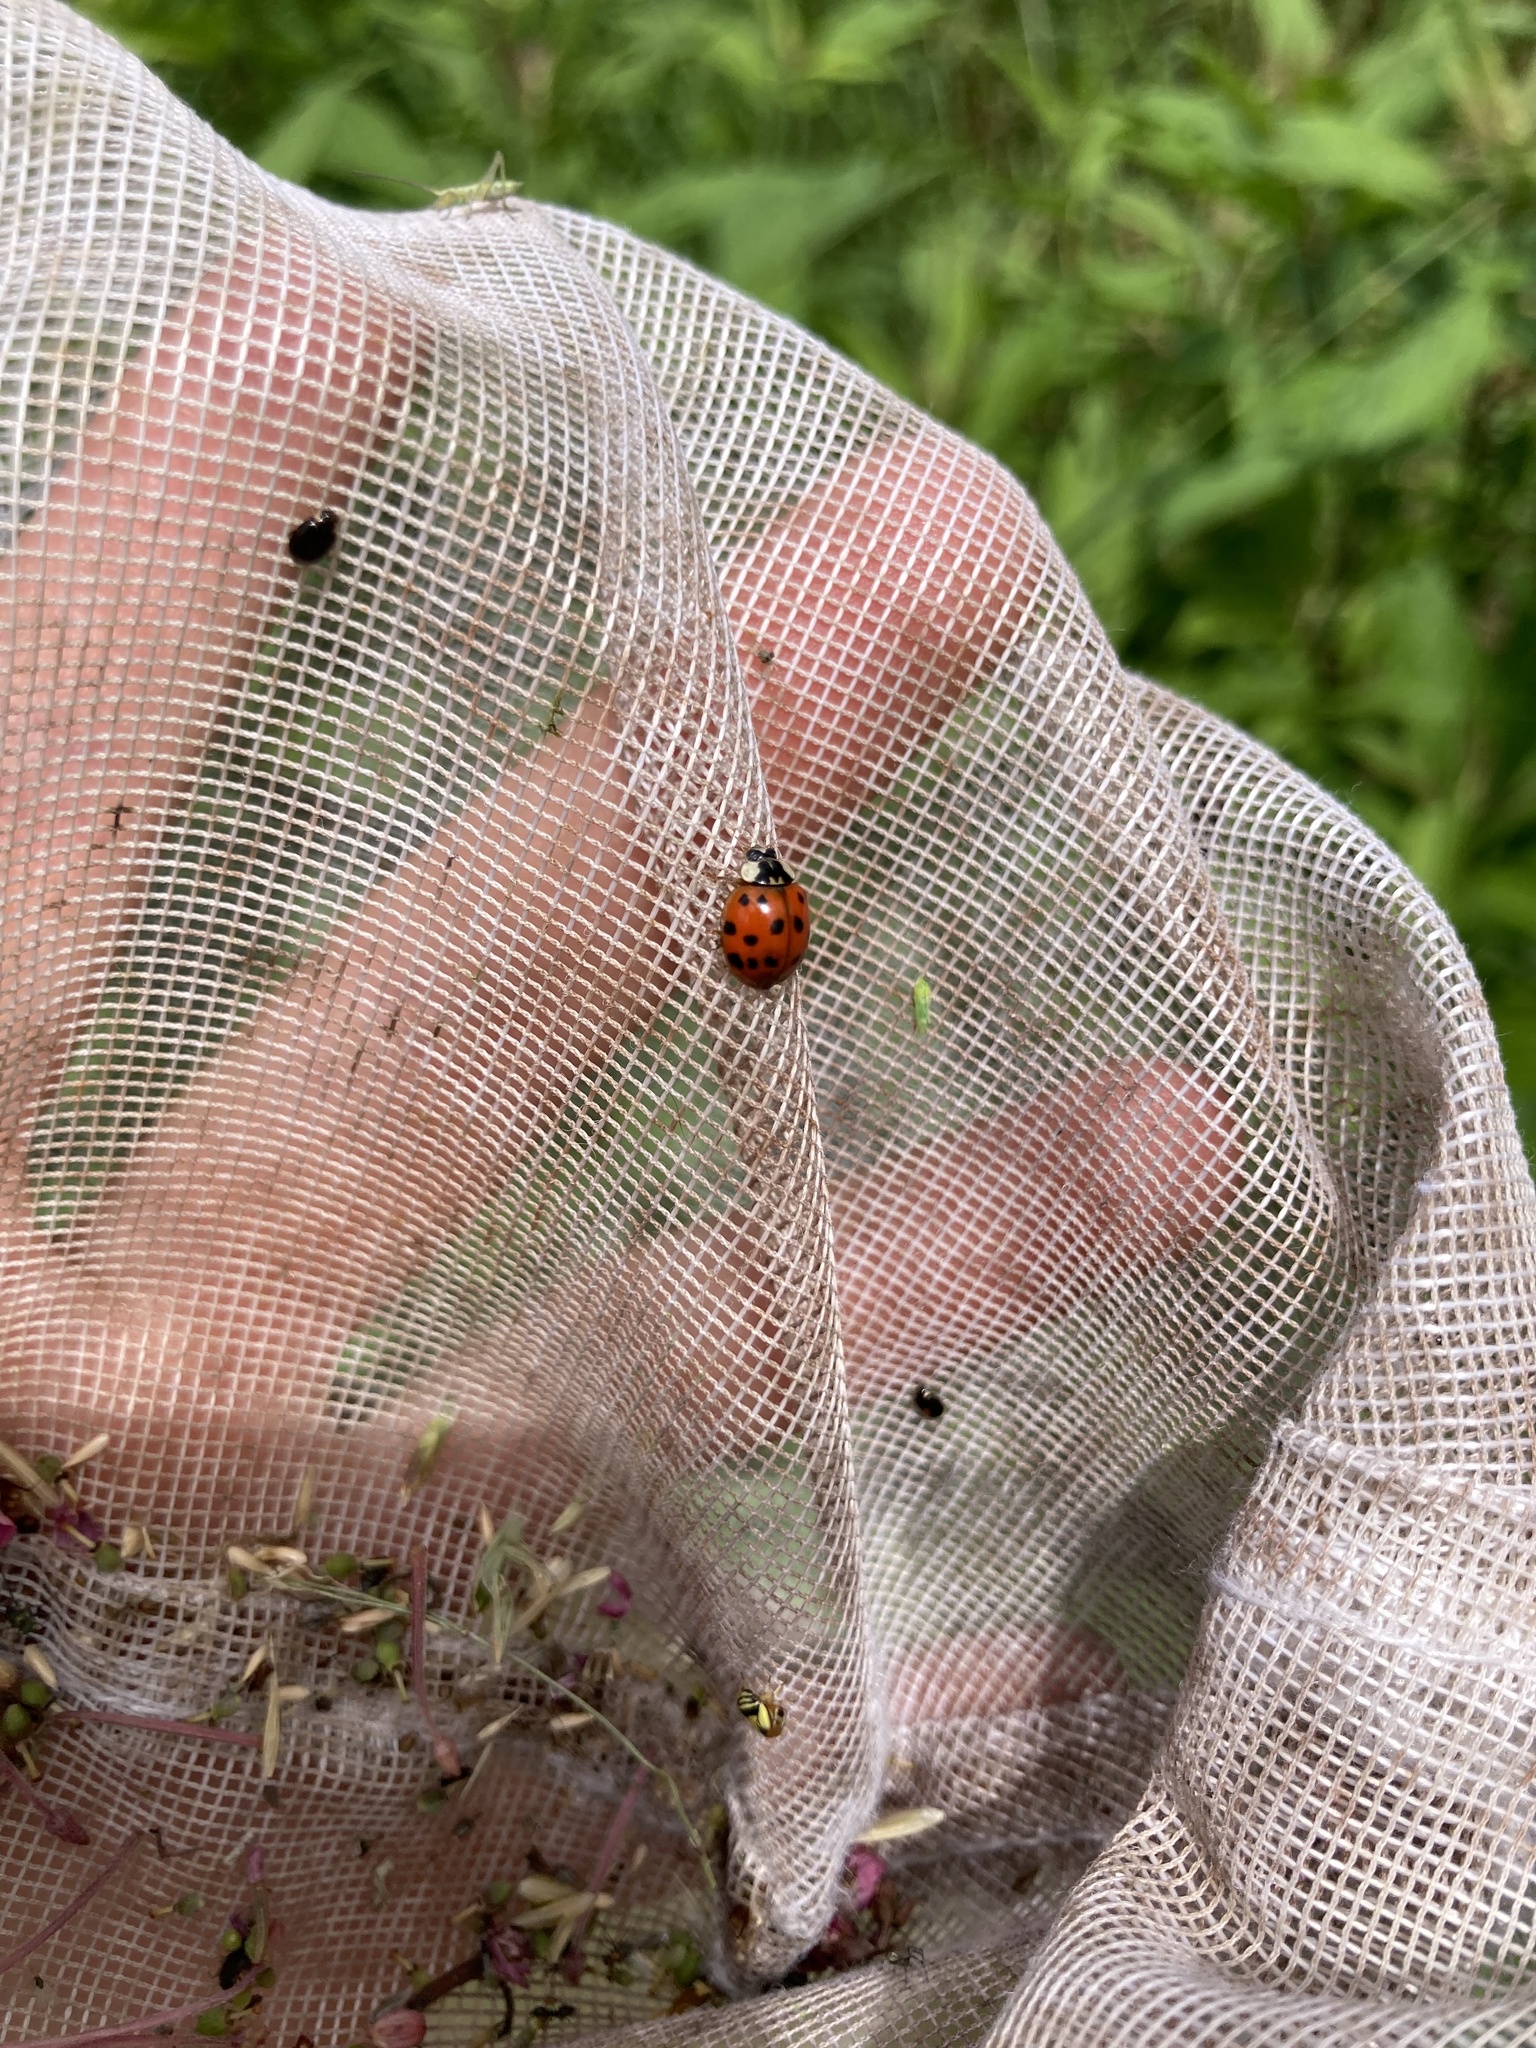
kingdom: Animalia
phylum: Arthropoda
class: Insecta
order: Coleoptera
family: Coccinellidae
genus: Harmonia
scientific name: Harmonia axyridis
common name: Harlequin ladybird
